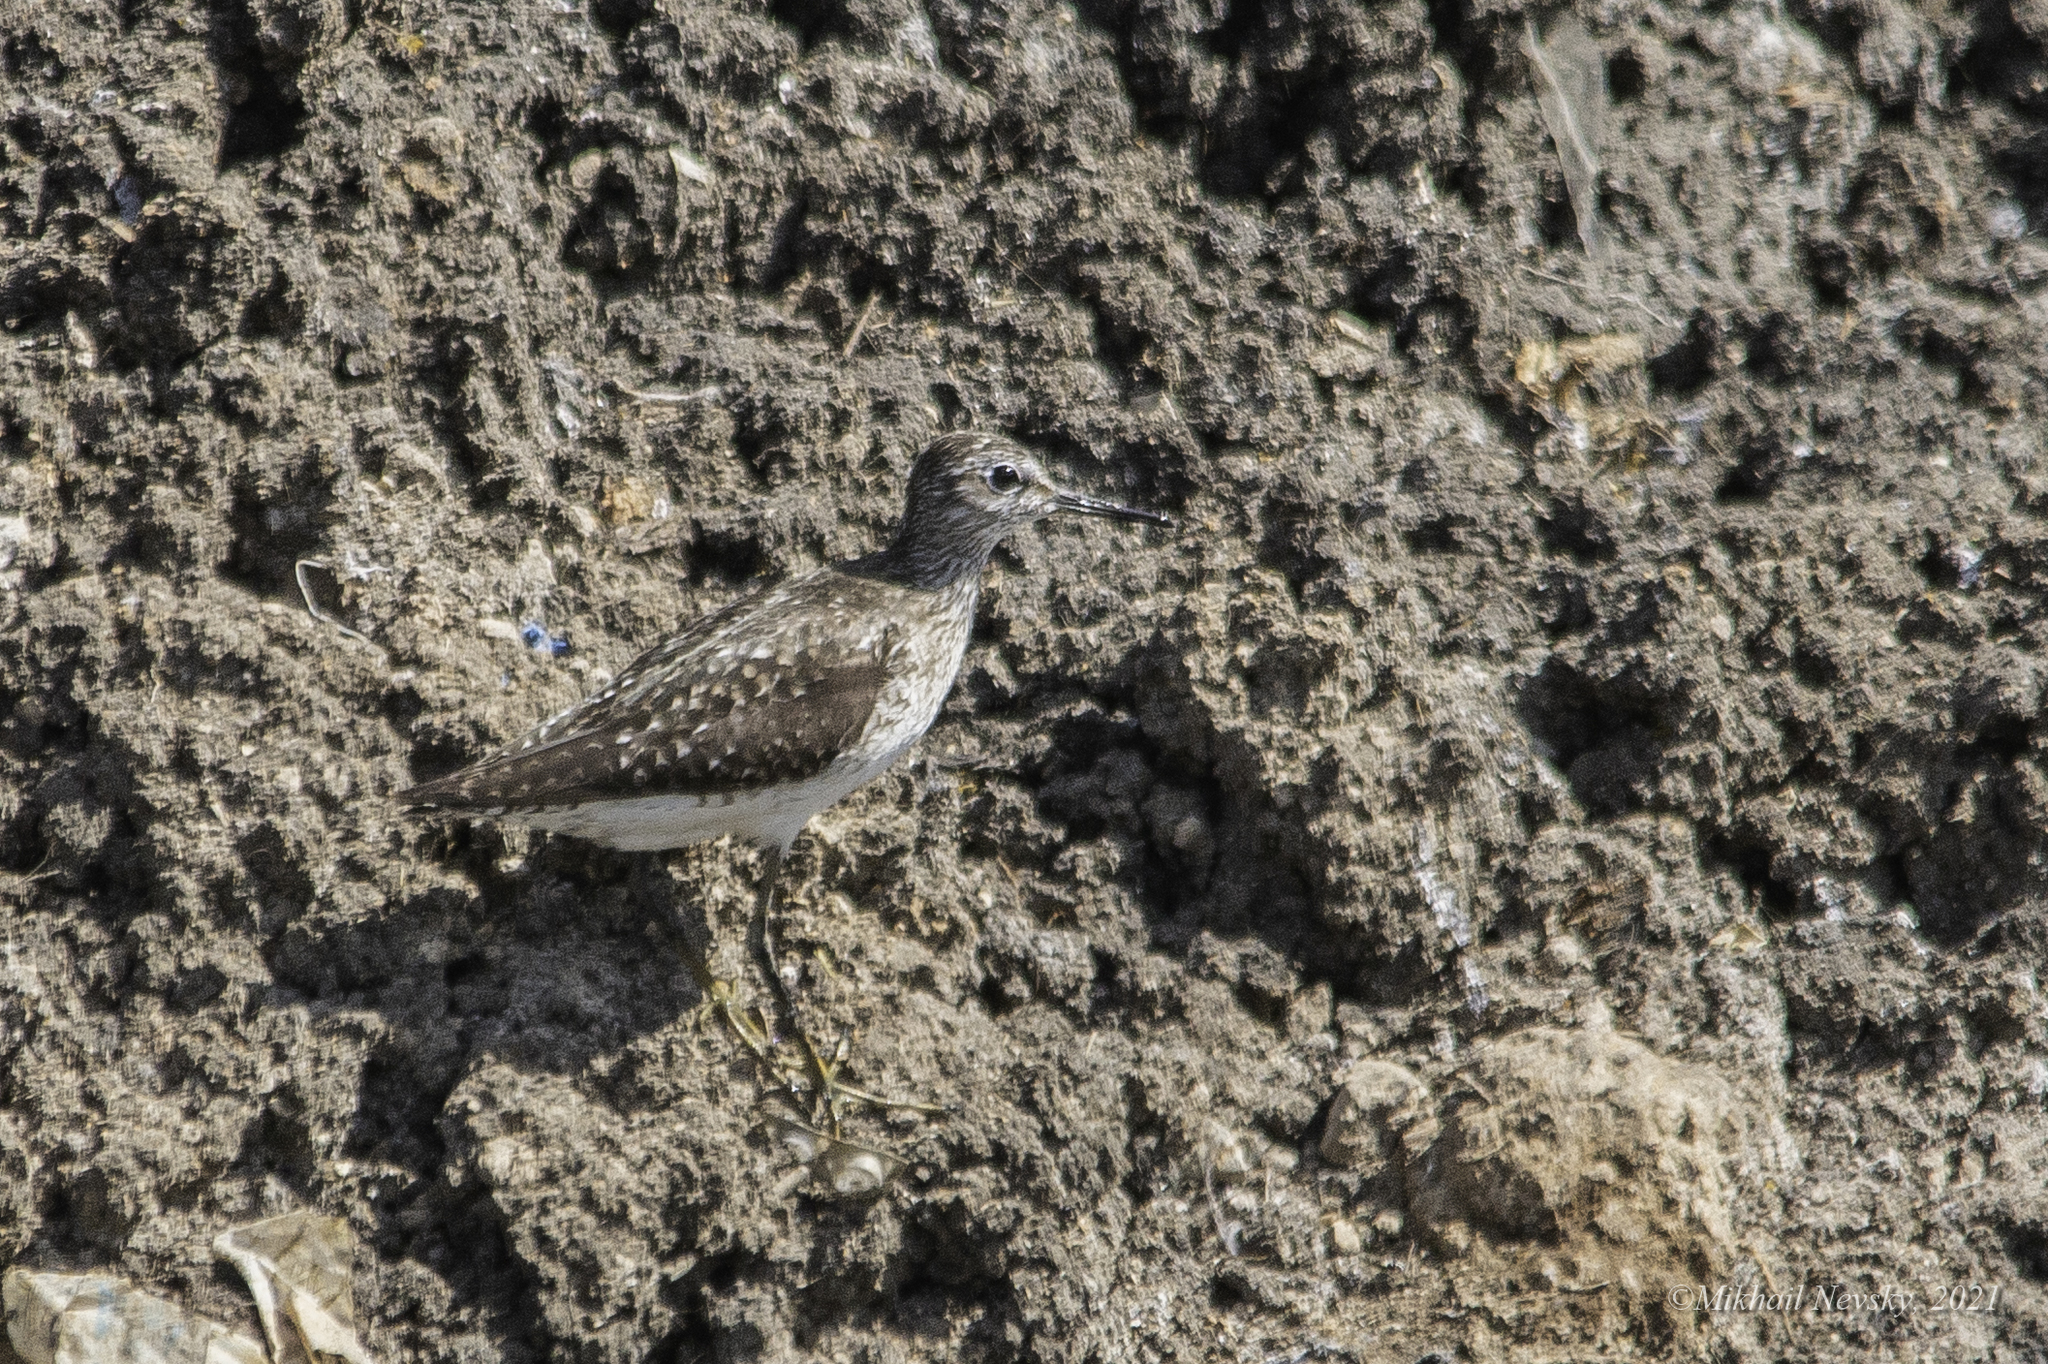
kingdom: Animalia
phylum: Chordata
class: Aves
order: Charadriiformes
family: Scolopacidae
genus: Tringa
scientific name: Tringa glareola
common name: Wood sandpiper
